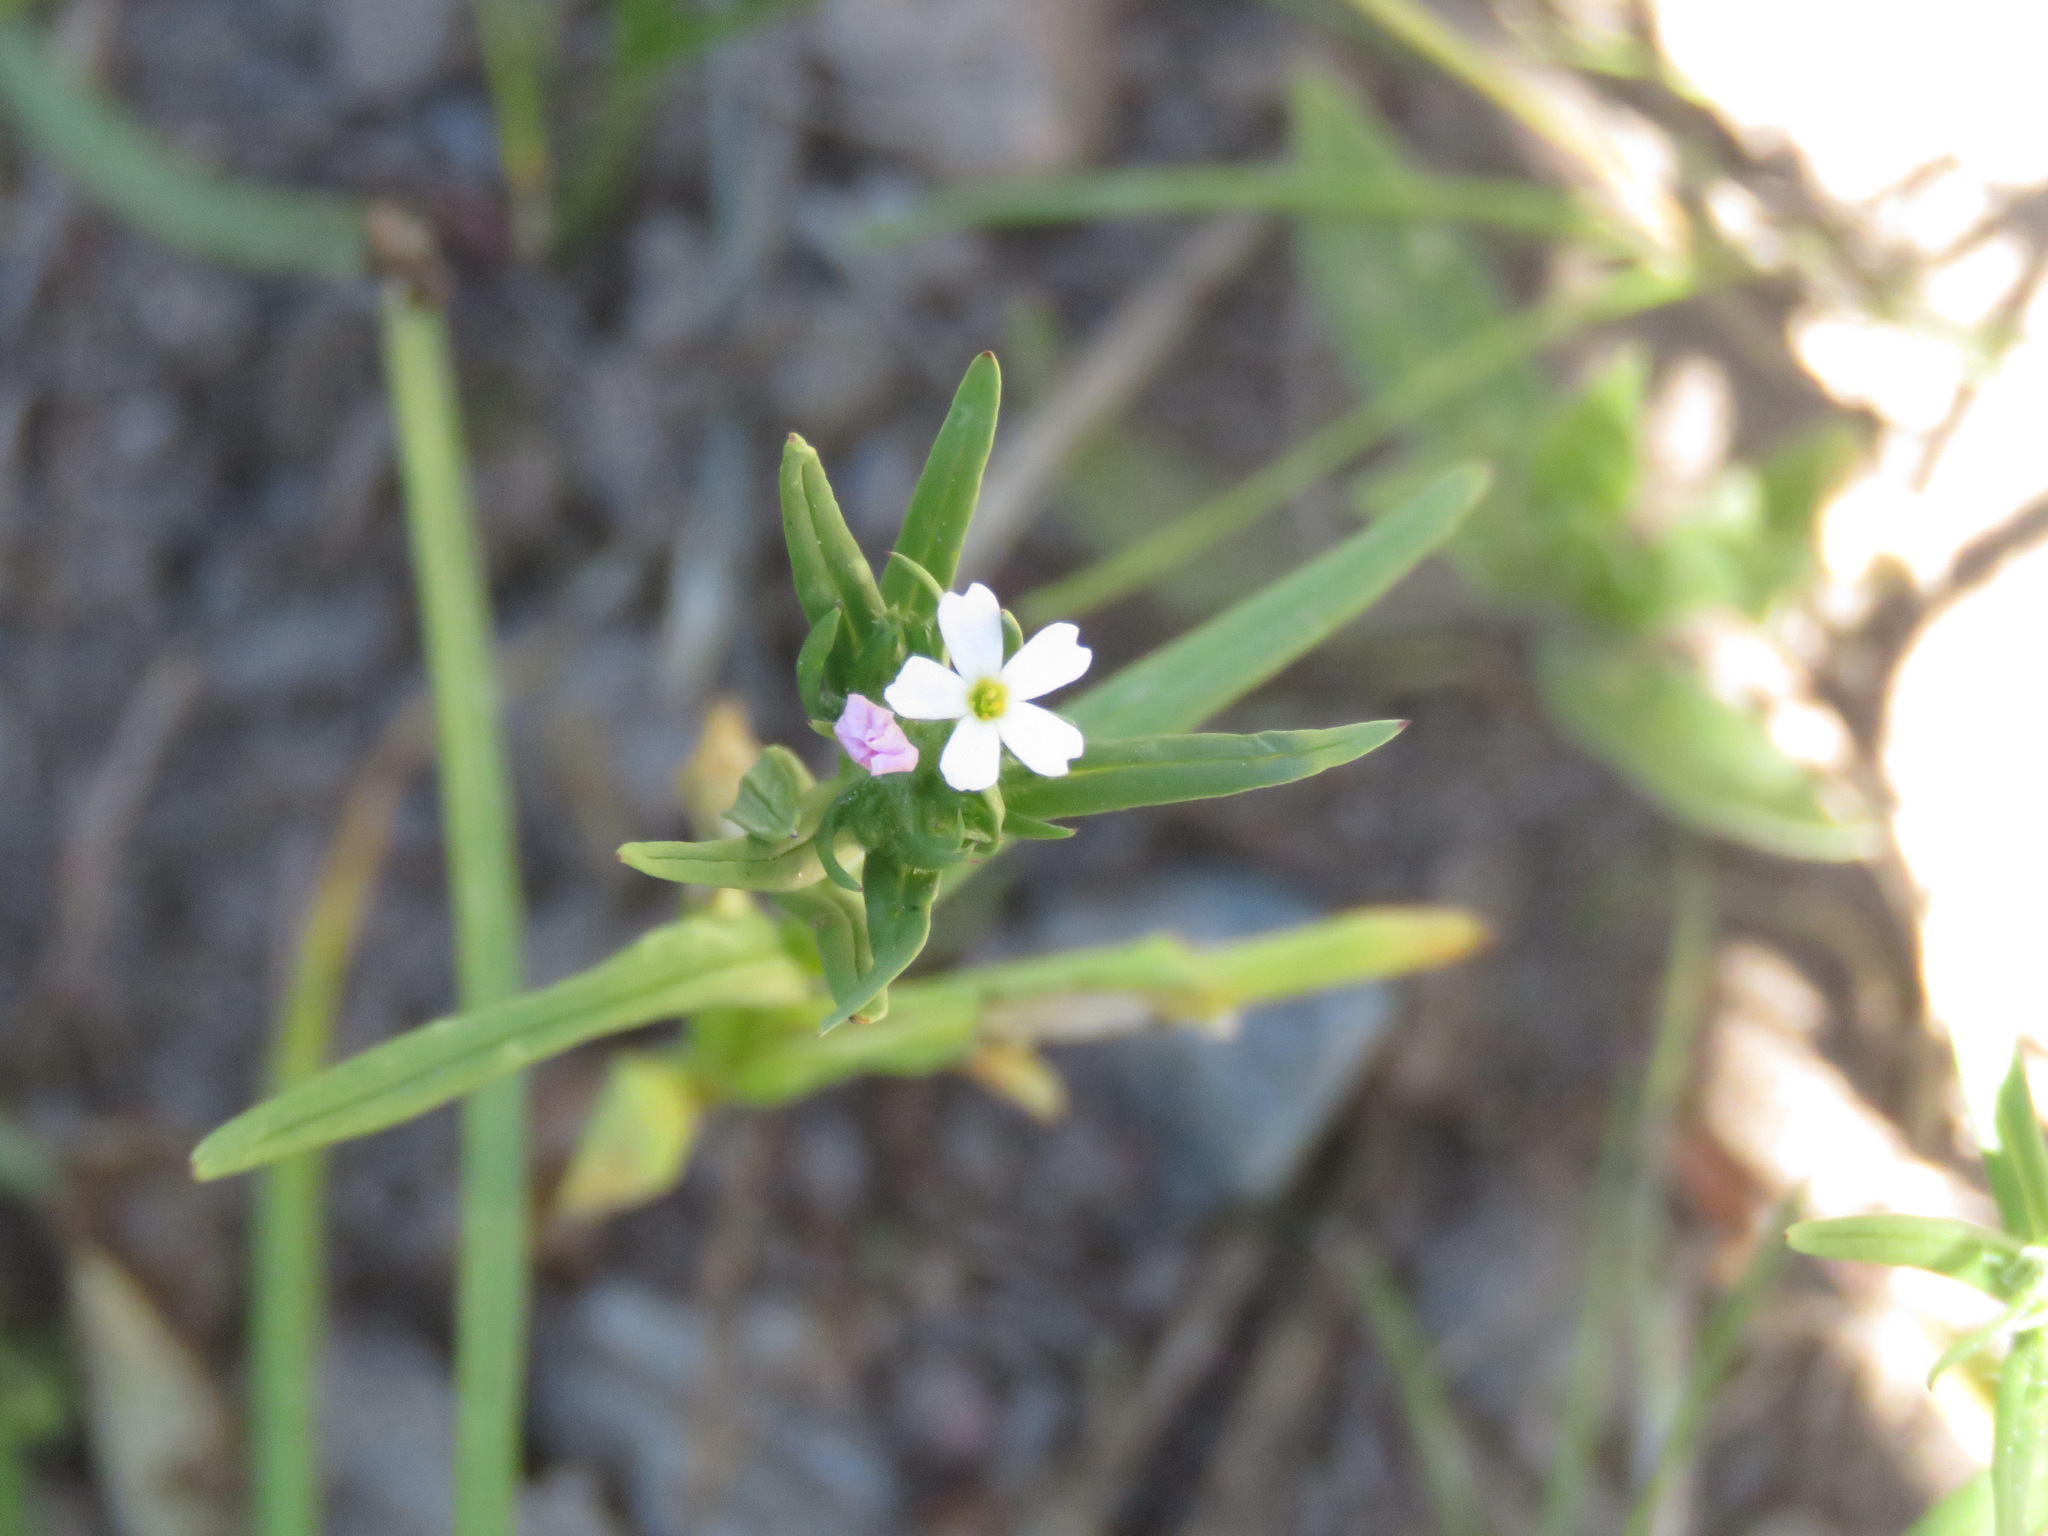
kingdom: Plantae
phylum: Tracheophyta
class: Magnoliopsida
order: Ericales
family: Polemoniaceae
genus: Phlox
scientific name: Phlox gracilis
